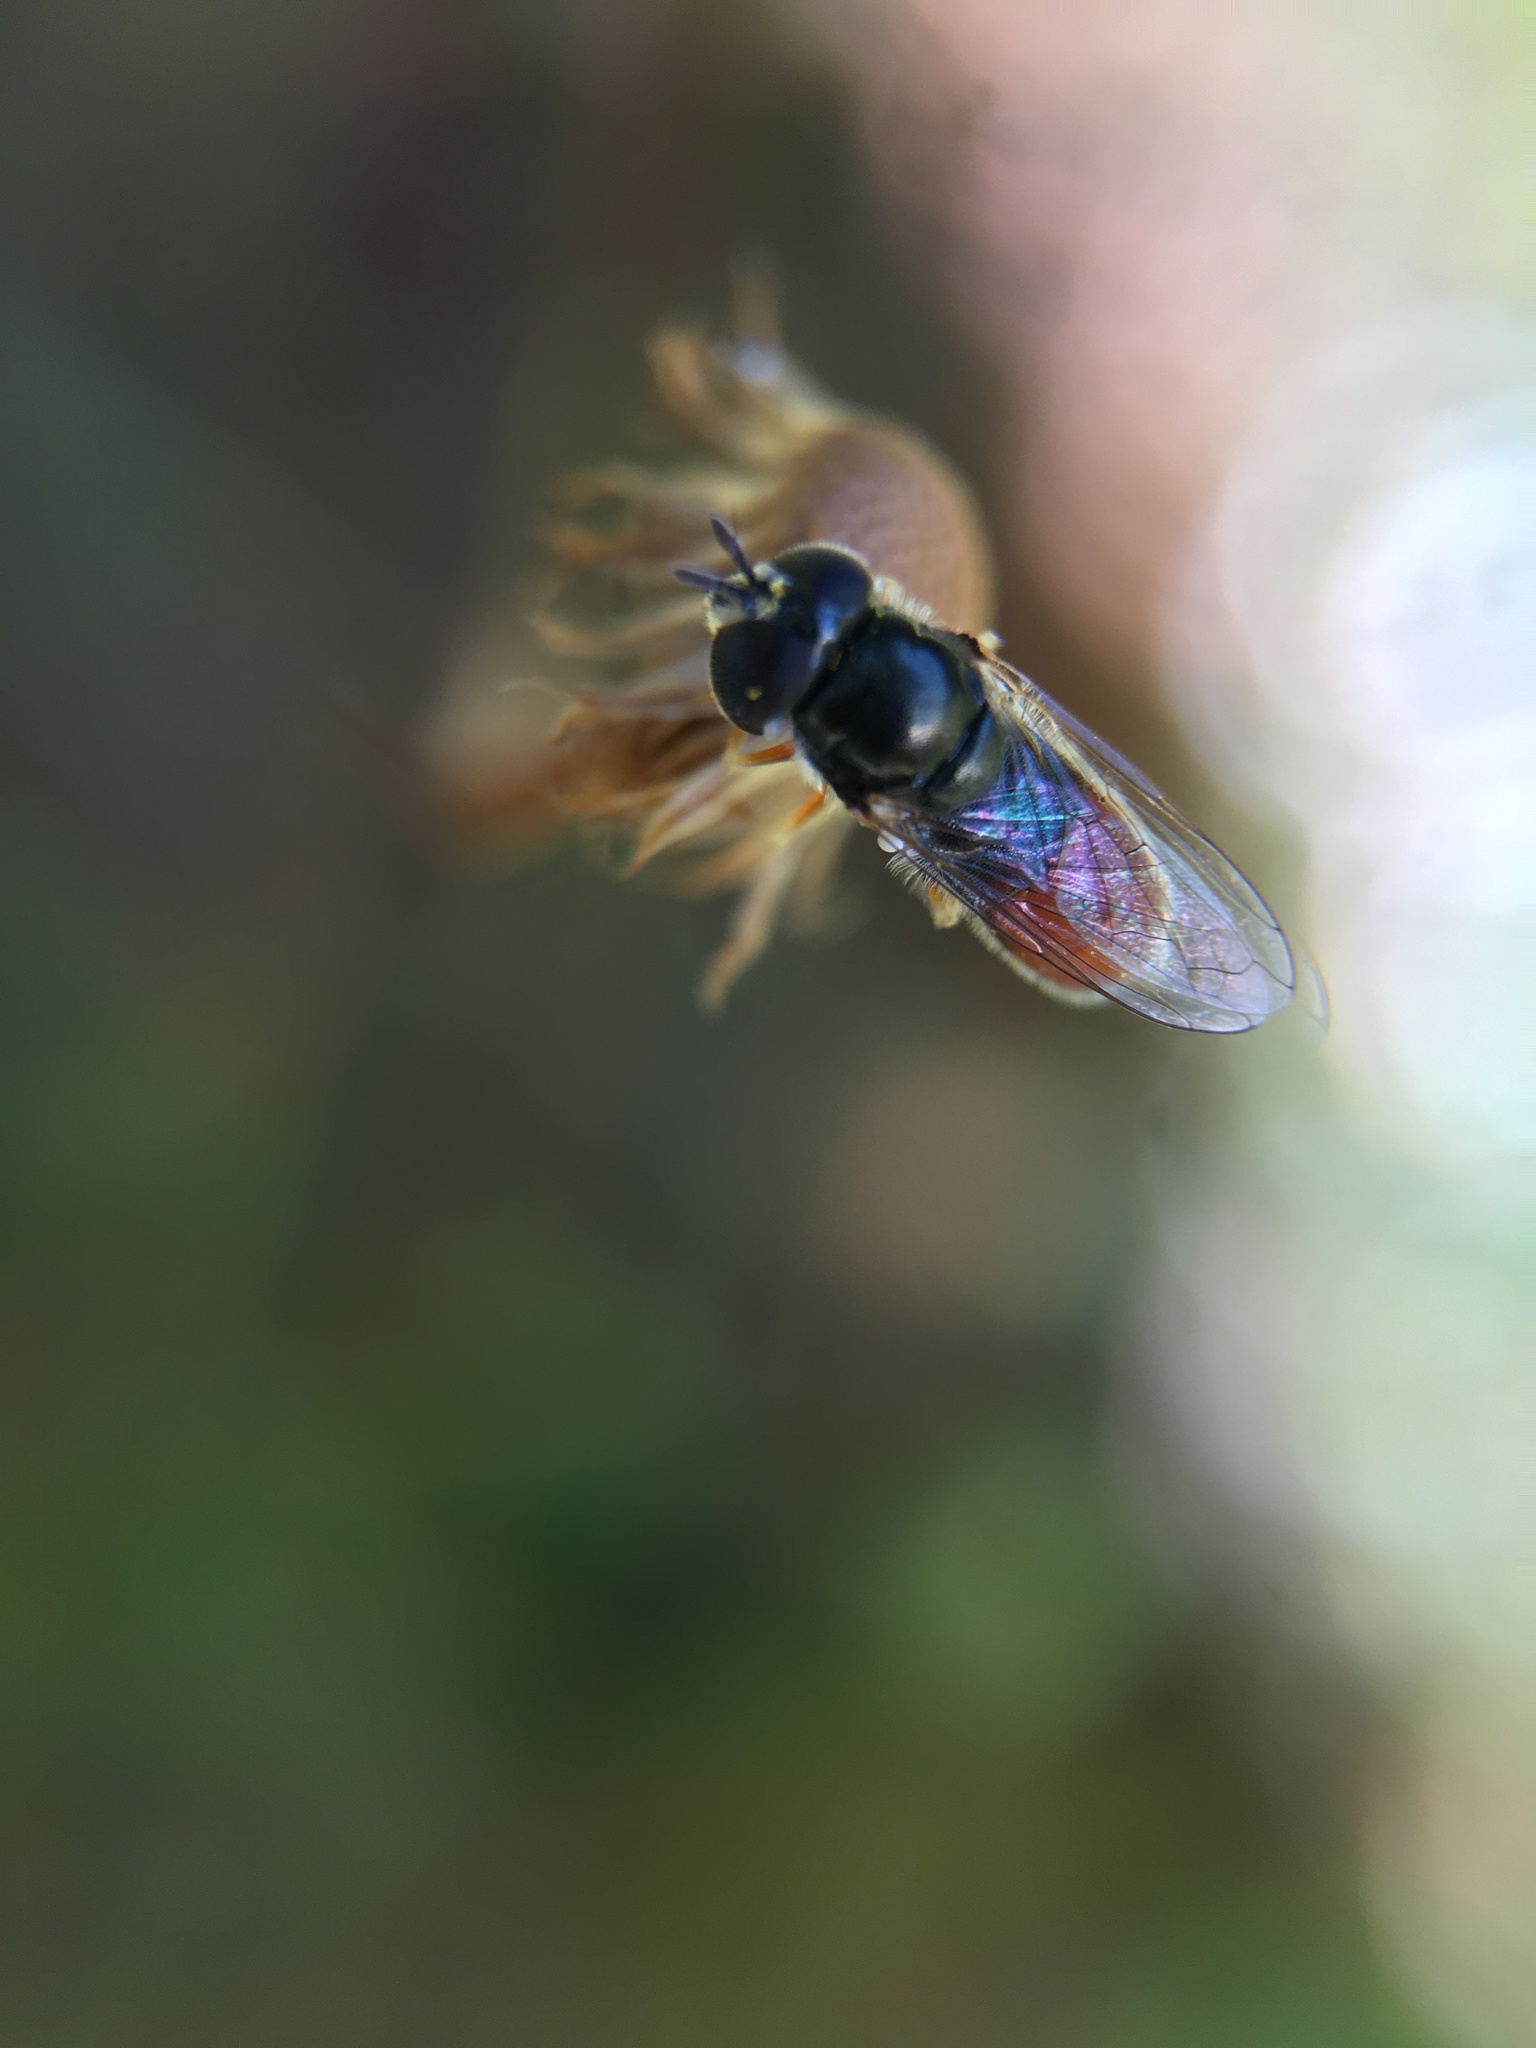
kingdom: Animalia
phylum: Arthropoda
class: Insecta
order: Diptera
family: Syrphidae
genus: Paragus
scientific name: Paragus haemorrhous
